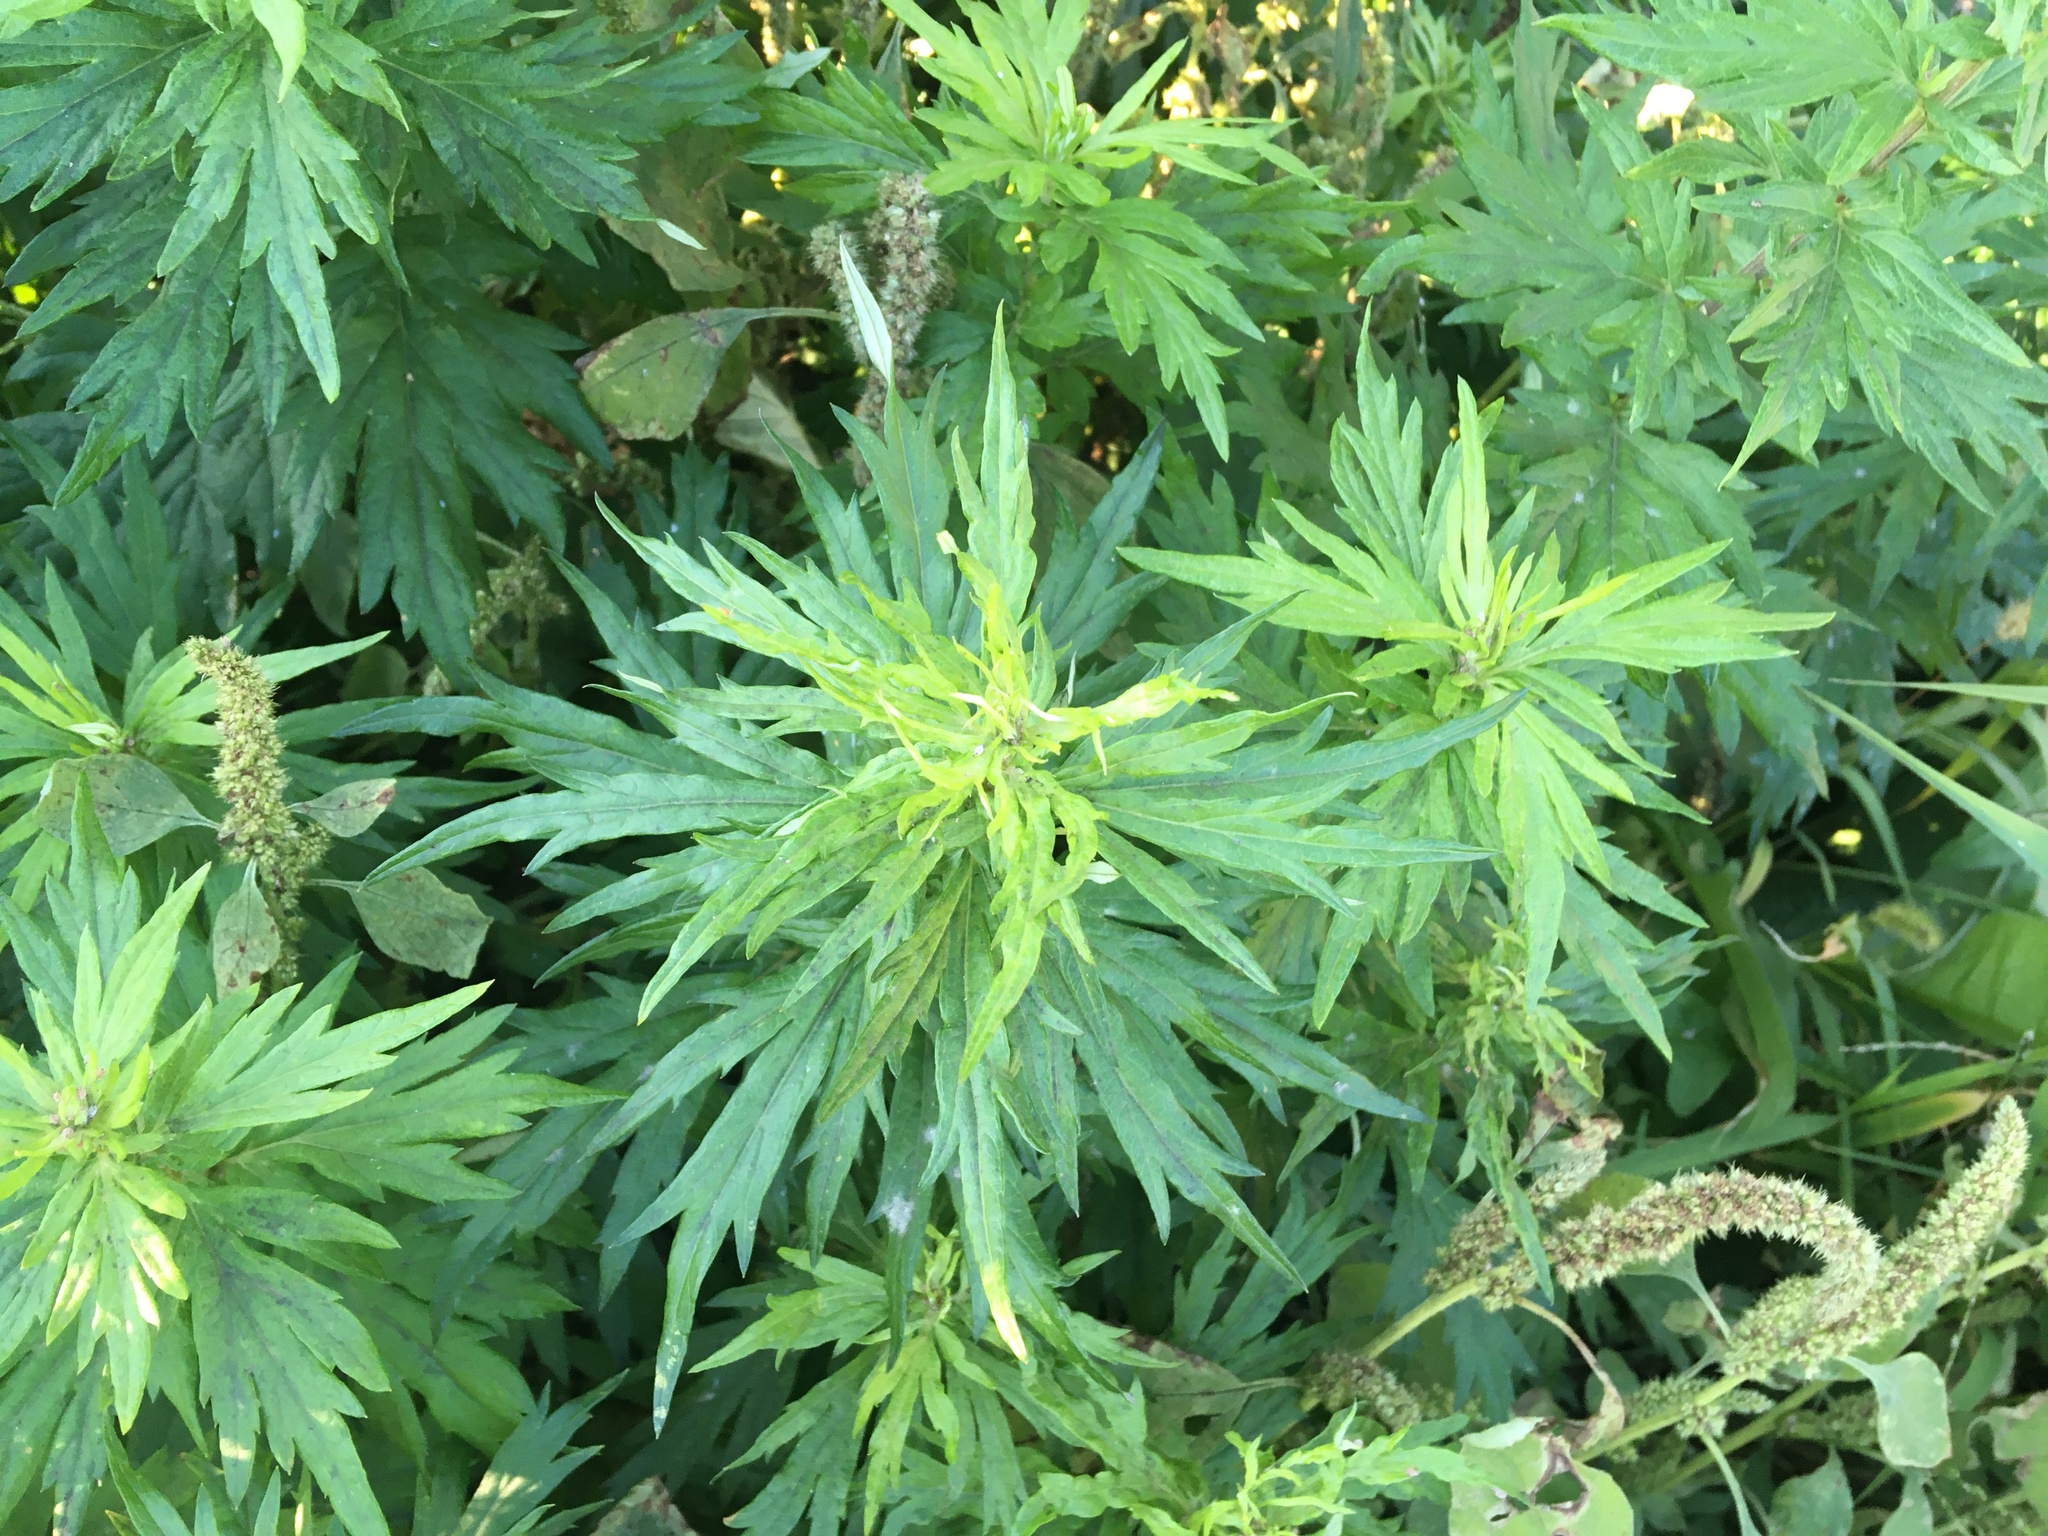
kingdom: Plantae
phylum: Tracheophyta
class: Magnoliopsida
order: Asterales
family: Asteraceae
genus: Artemisia
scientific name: Artemisia vulgaris
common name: Mugwort
